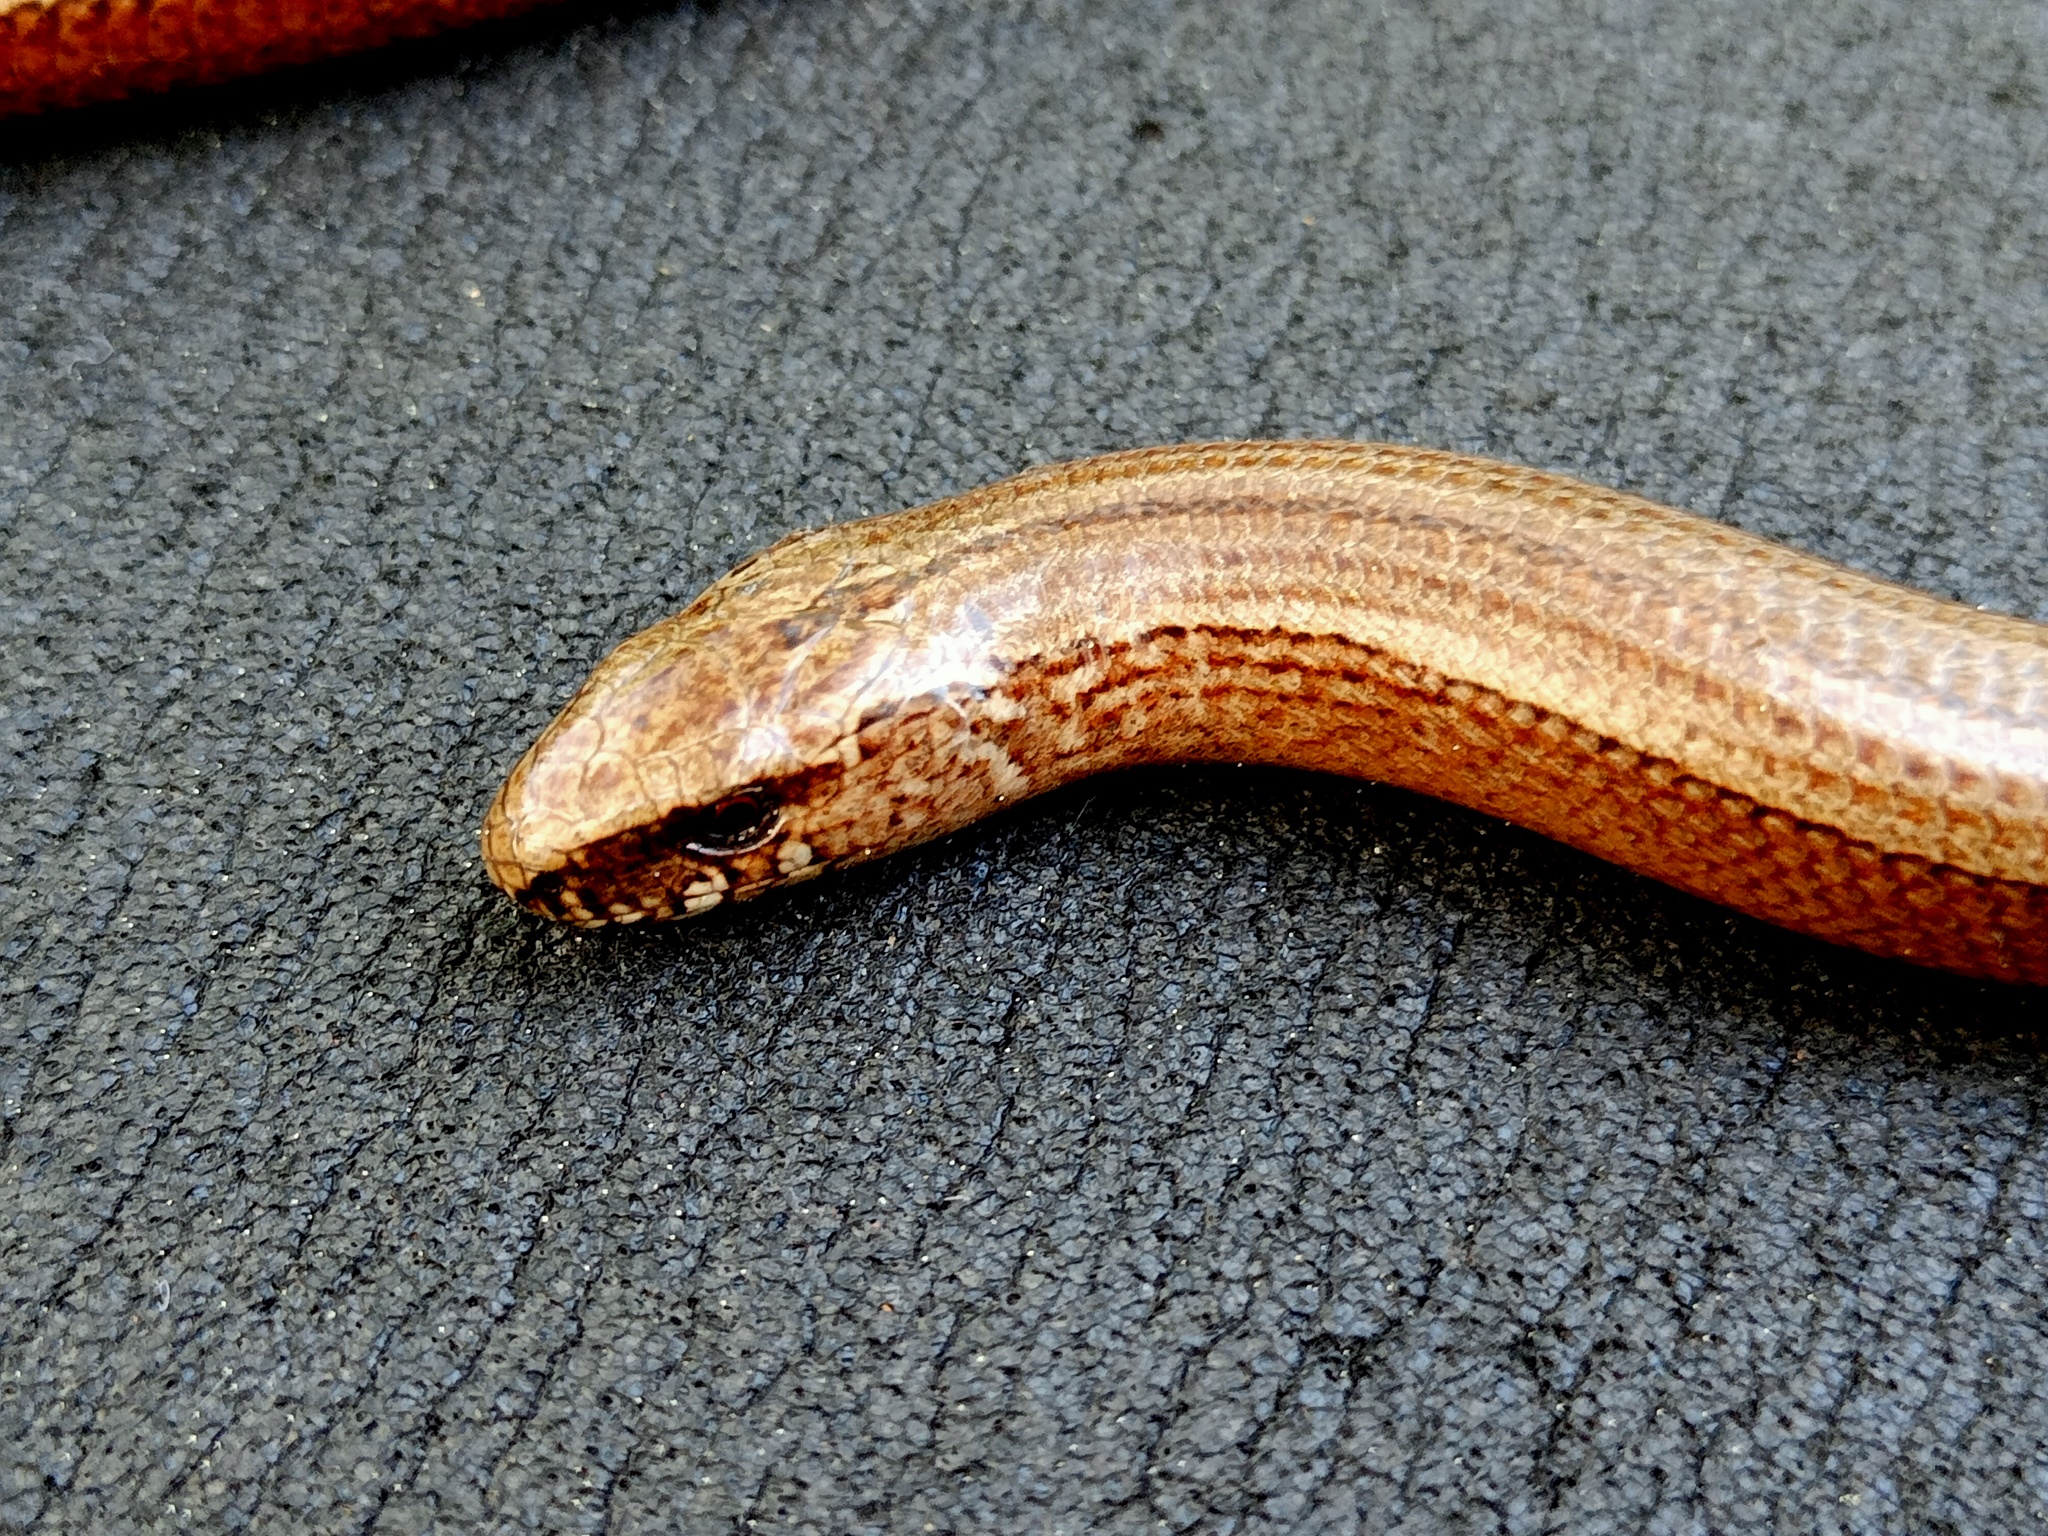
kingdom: Animalia
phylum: Chordata
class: Squamata
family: Anguidae
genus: Anguis
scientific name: Anguis fragilis
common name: Slow worm
